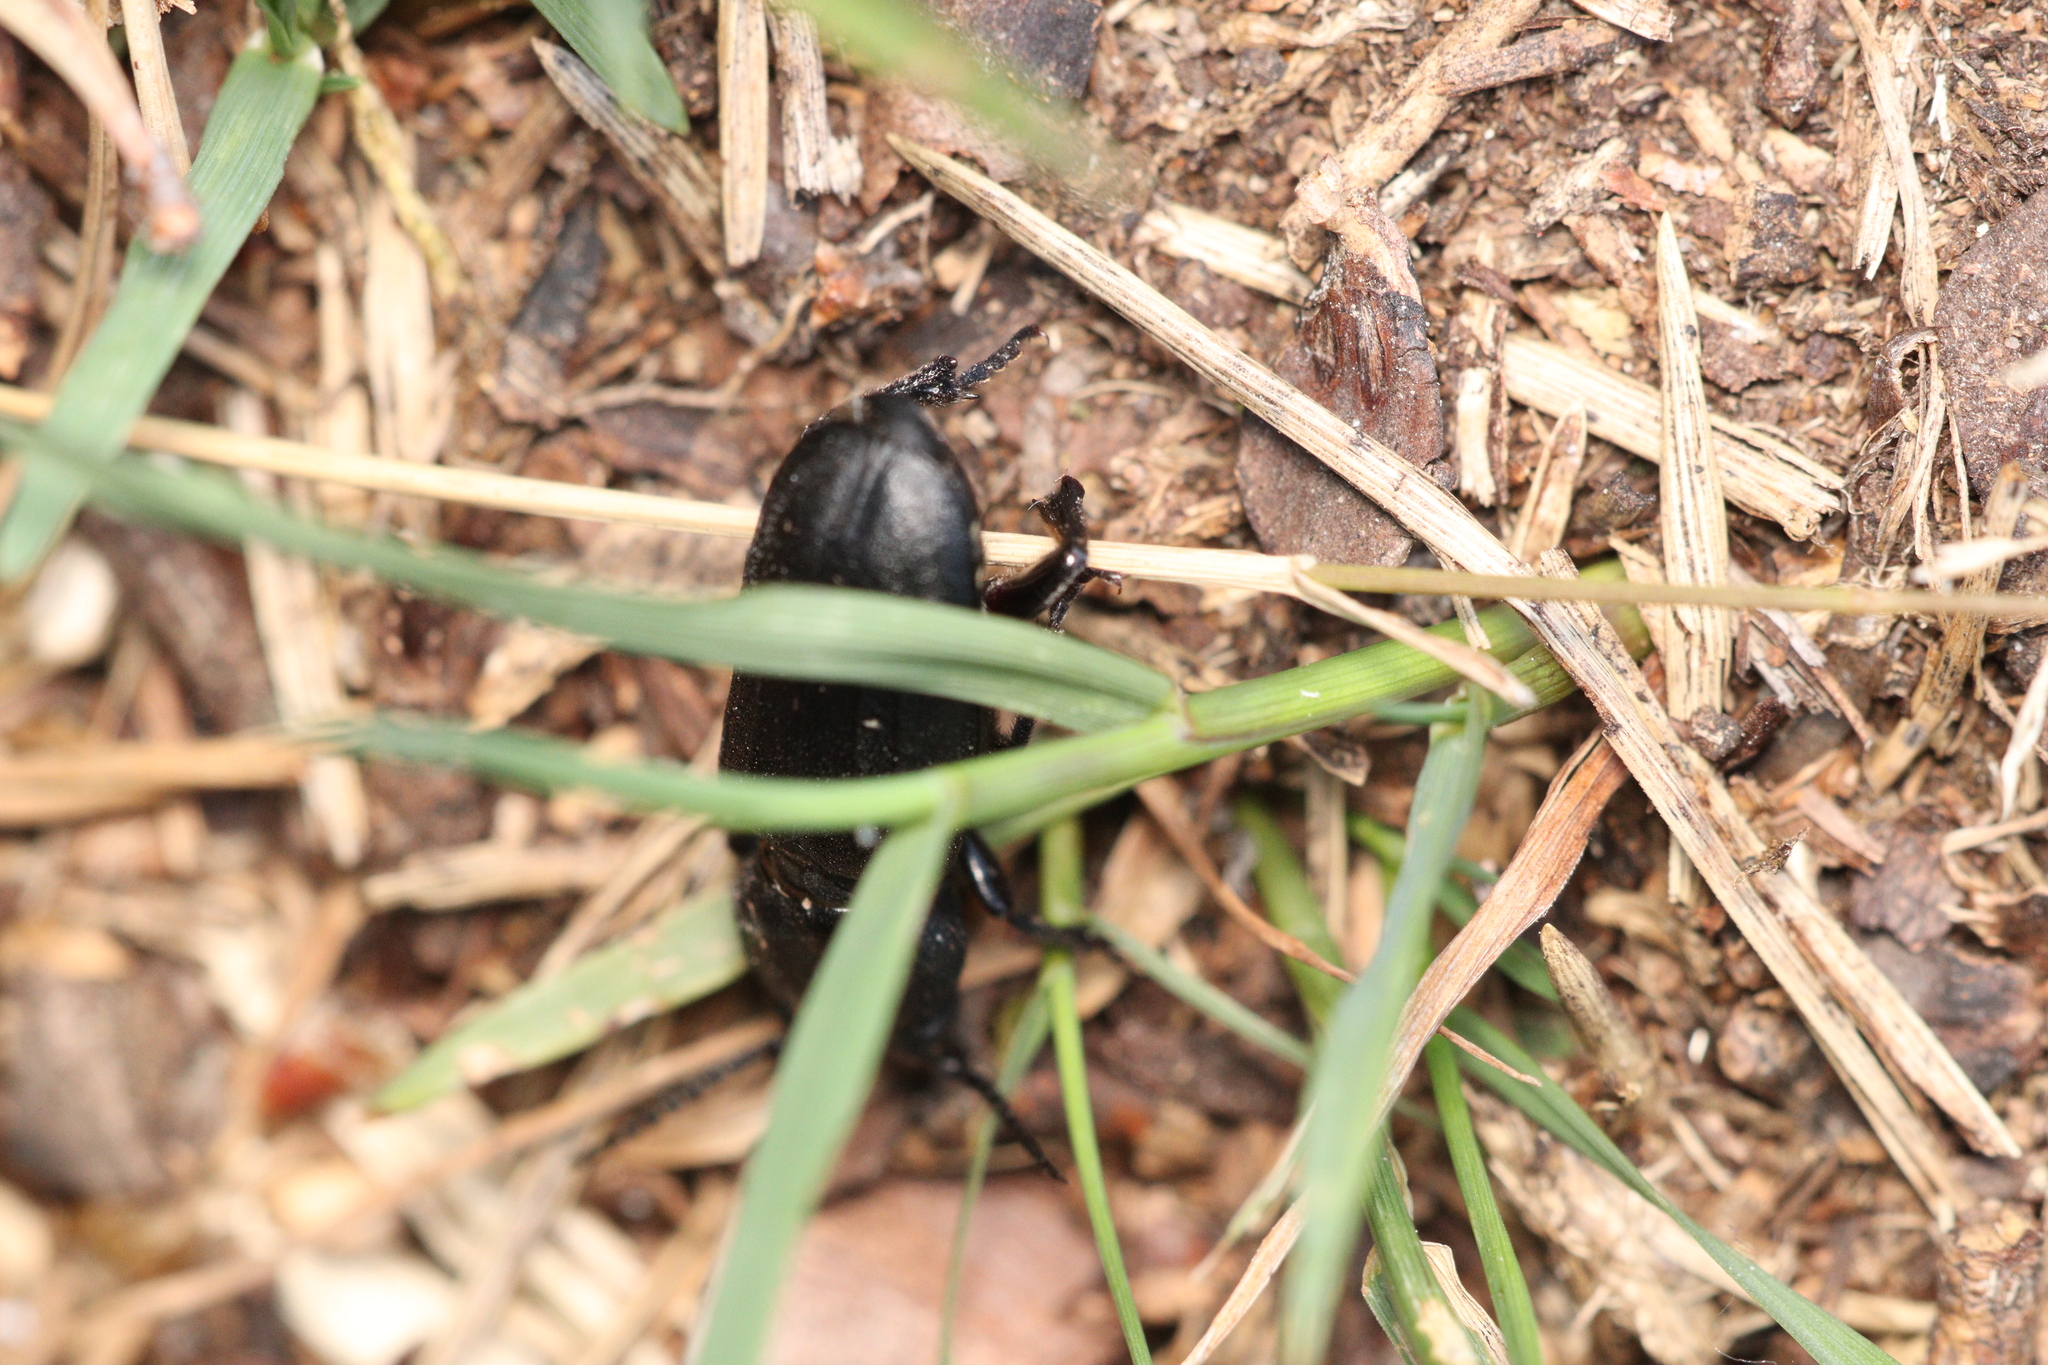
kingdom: Animalia
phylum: Arthropoda
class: Insecta
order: Coleoptera
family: Cerambycidae
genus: Spondylis
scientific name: Spondylis buprestoides
